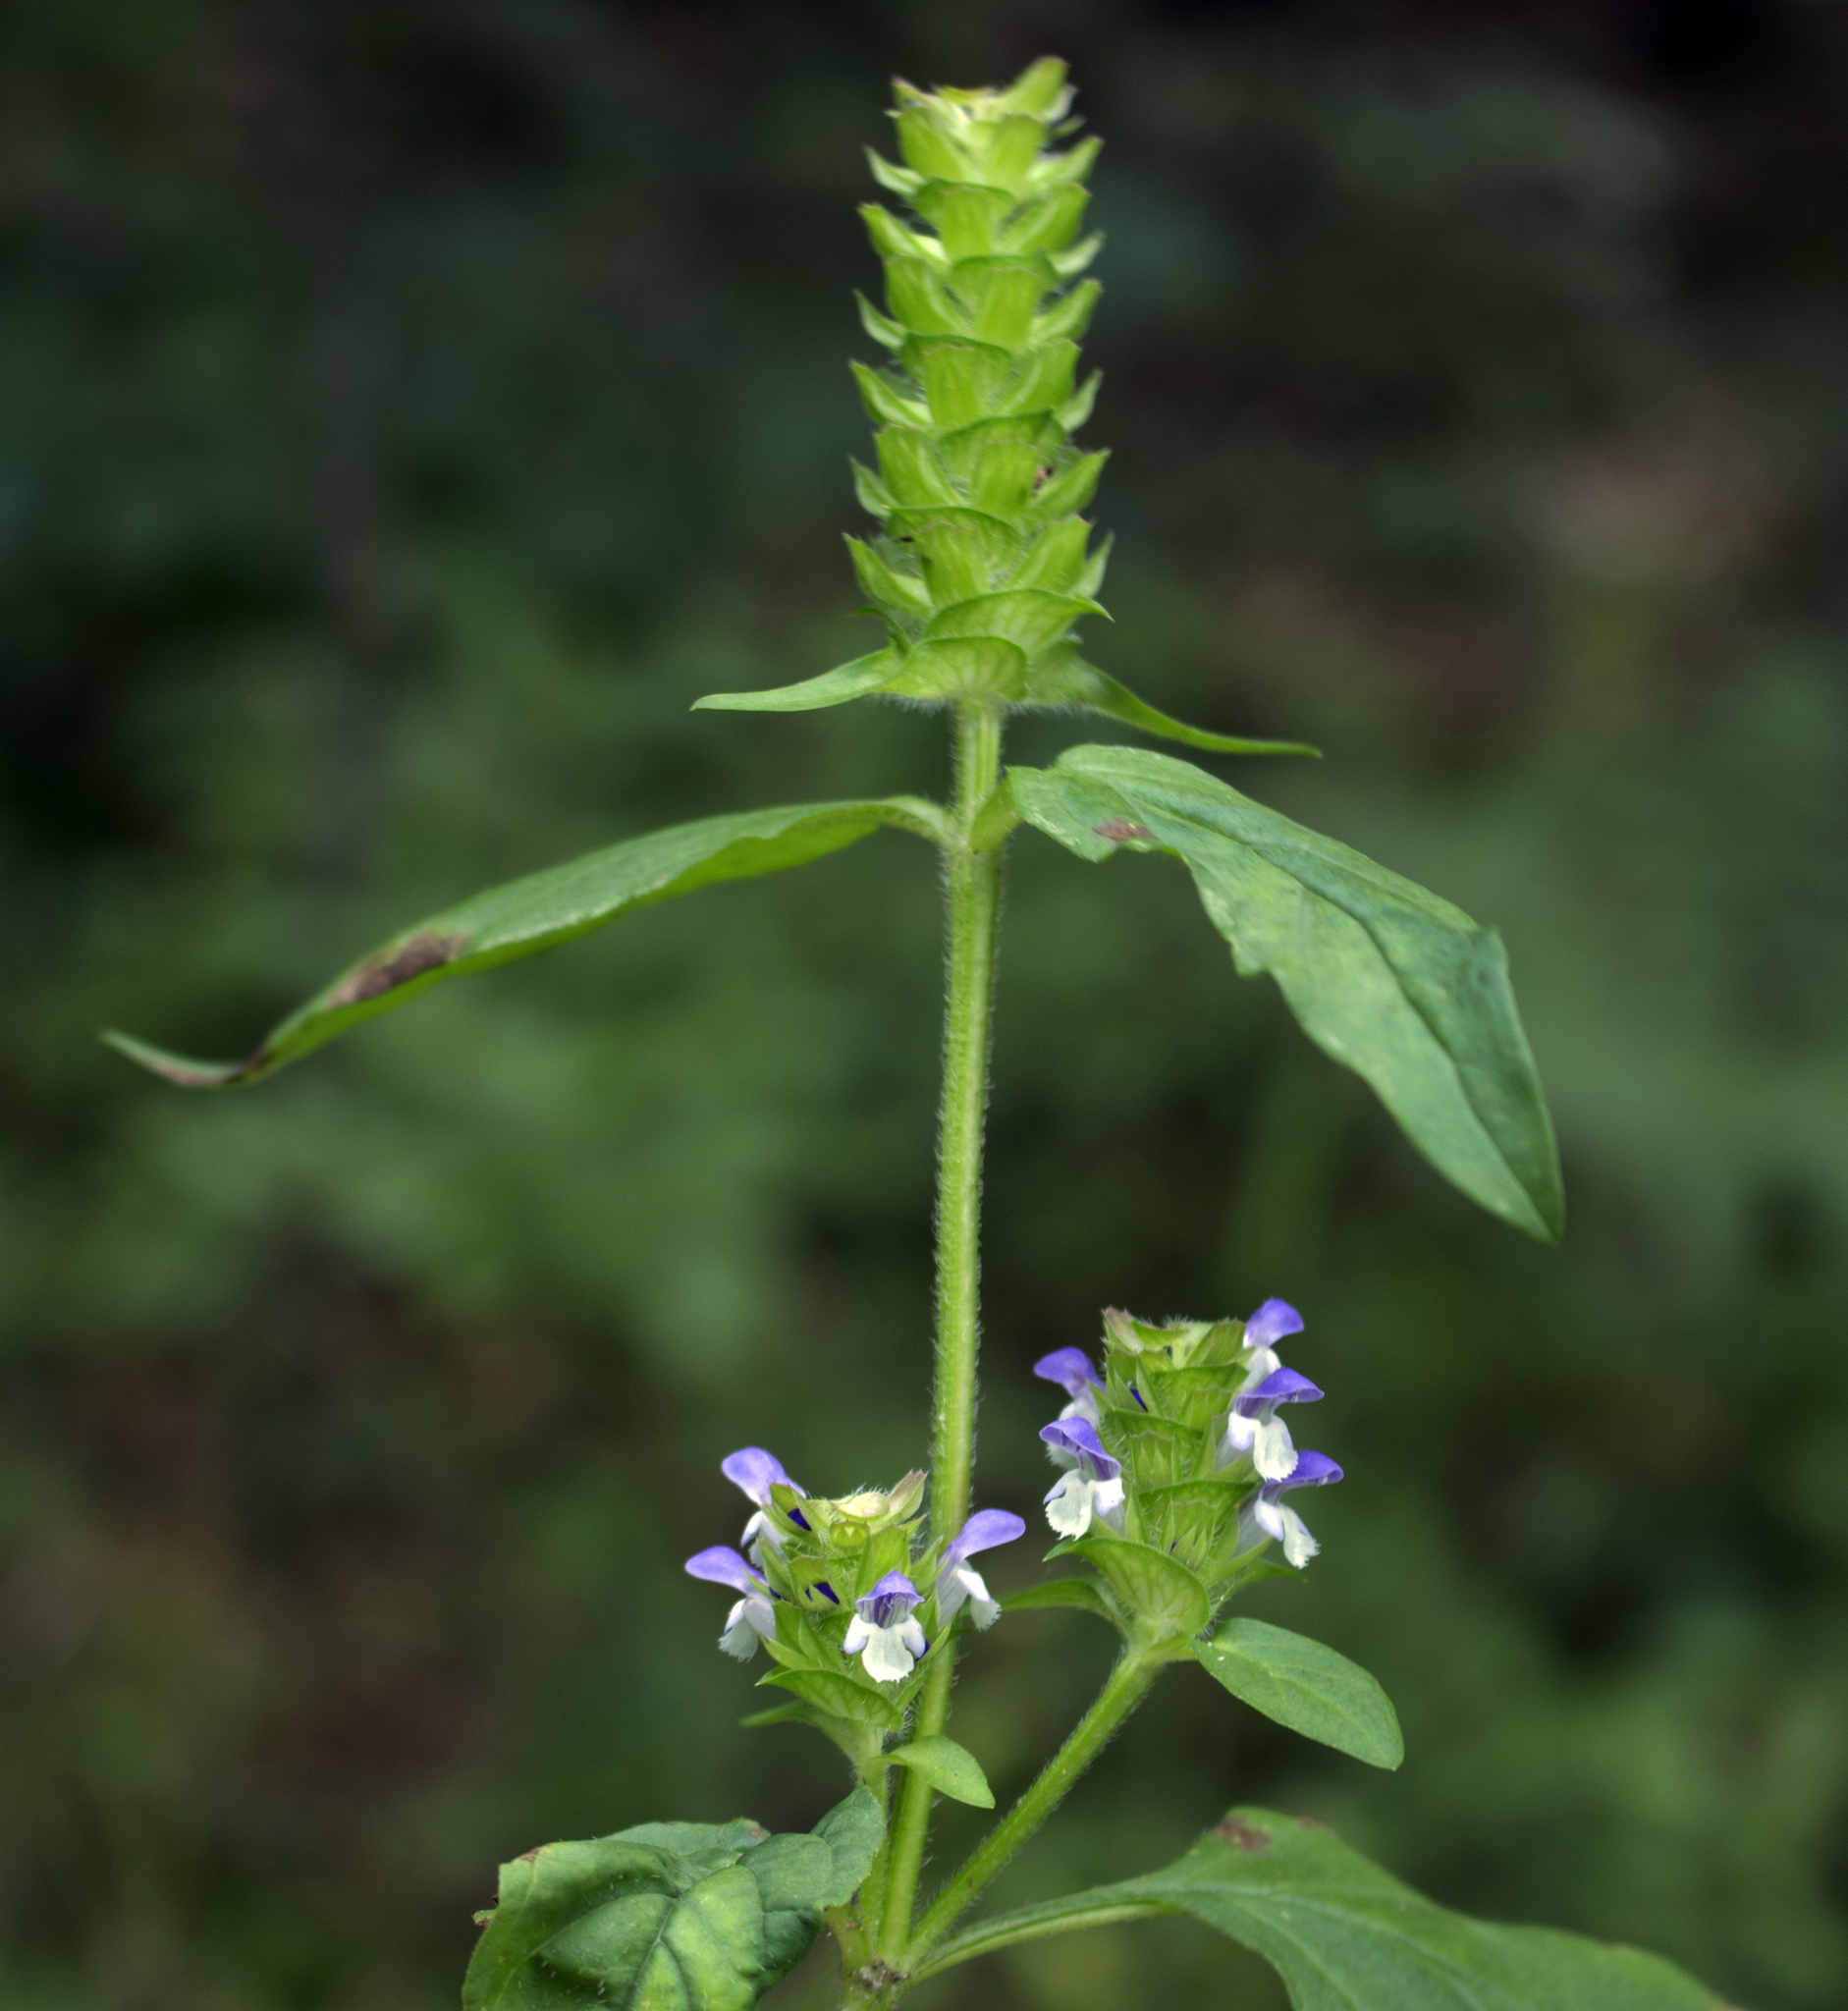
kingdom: Plantae
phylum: Tracheophyta
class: Magnoliopsida
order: Lamiales
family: Lamiaceae
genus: Prunella
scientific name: Prunella vulgaris
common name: Heal-all
